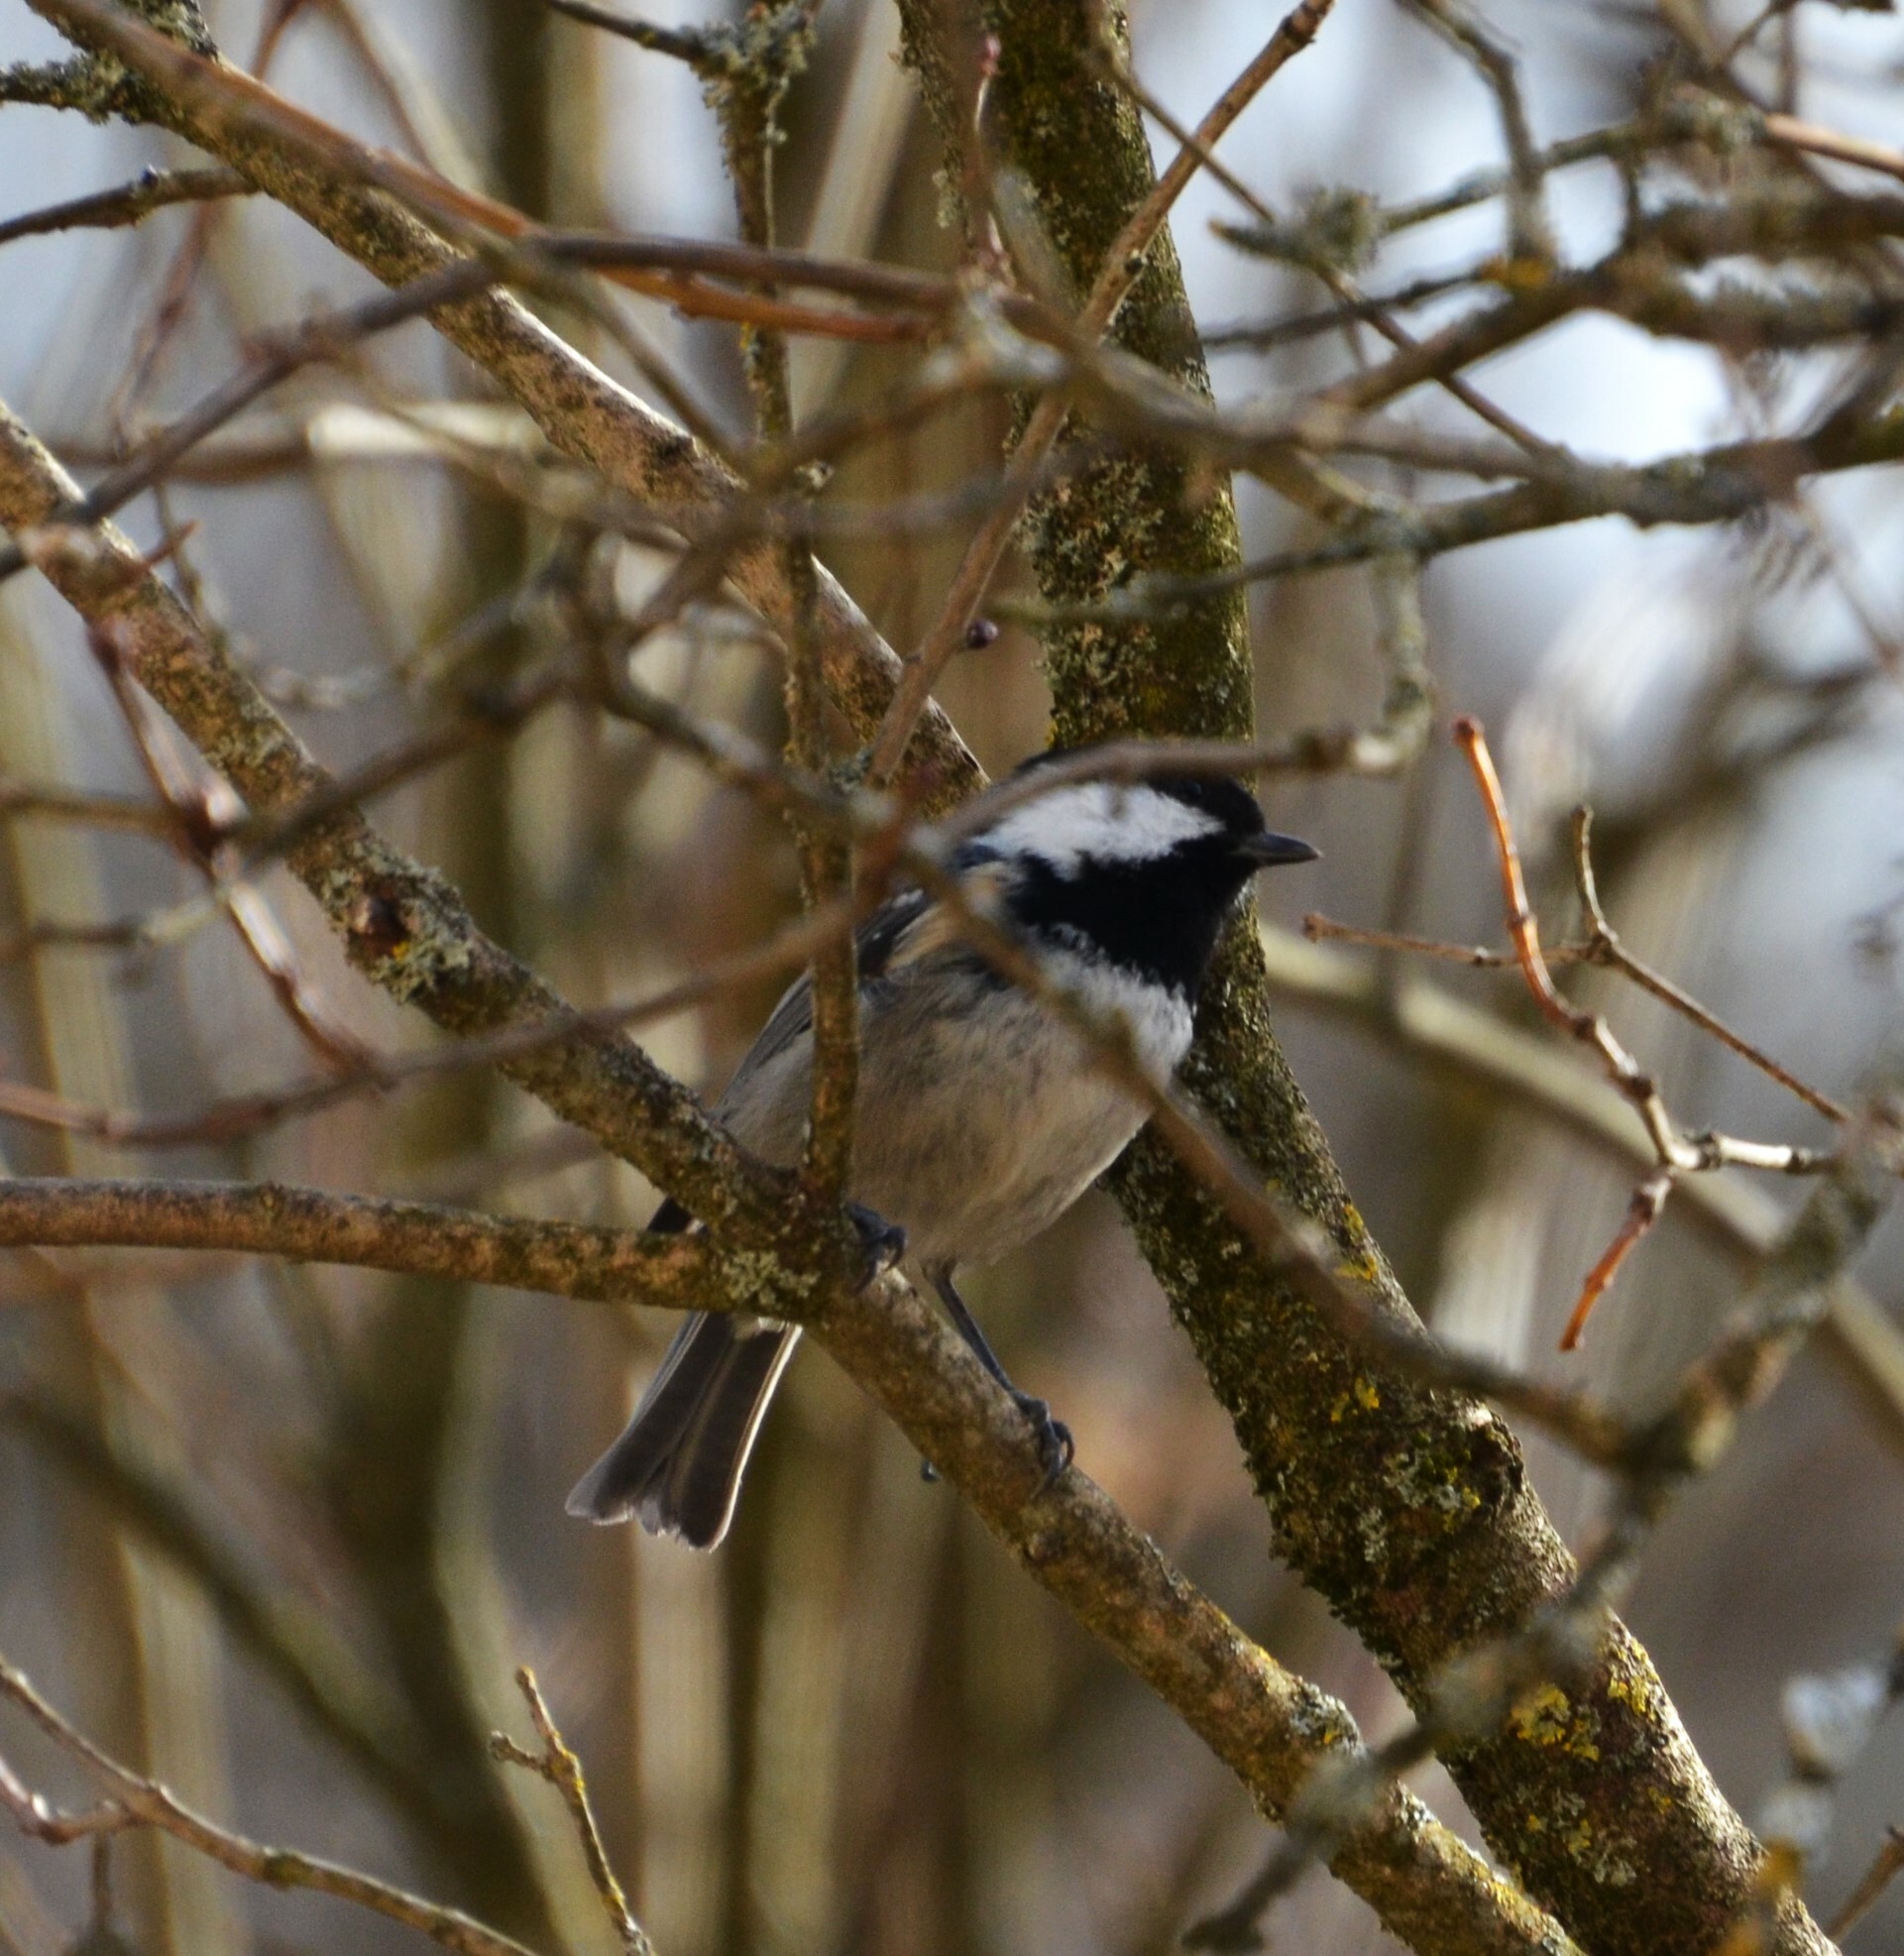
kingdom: Animalia
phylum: Chordata
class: Aves
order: Passeriformes
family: Paridae
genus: Periparus
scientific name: Periparus ater
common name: Coal tit
